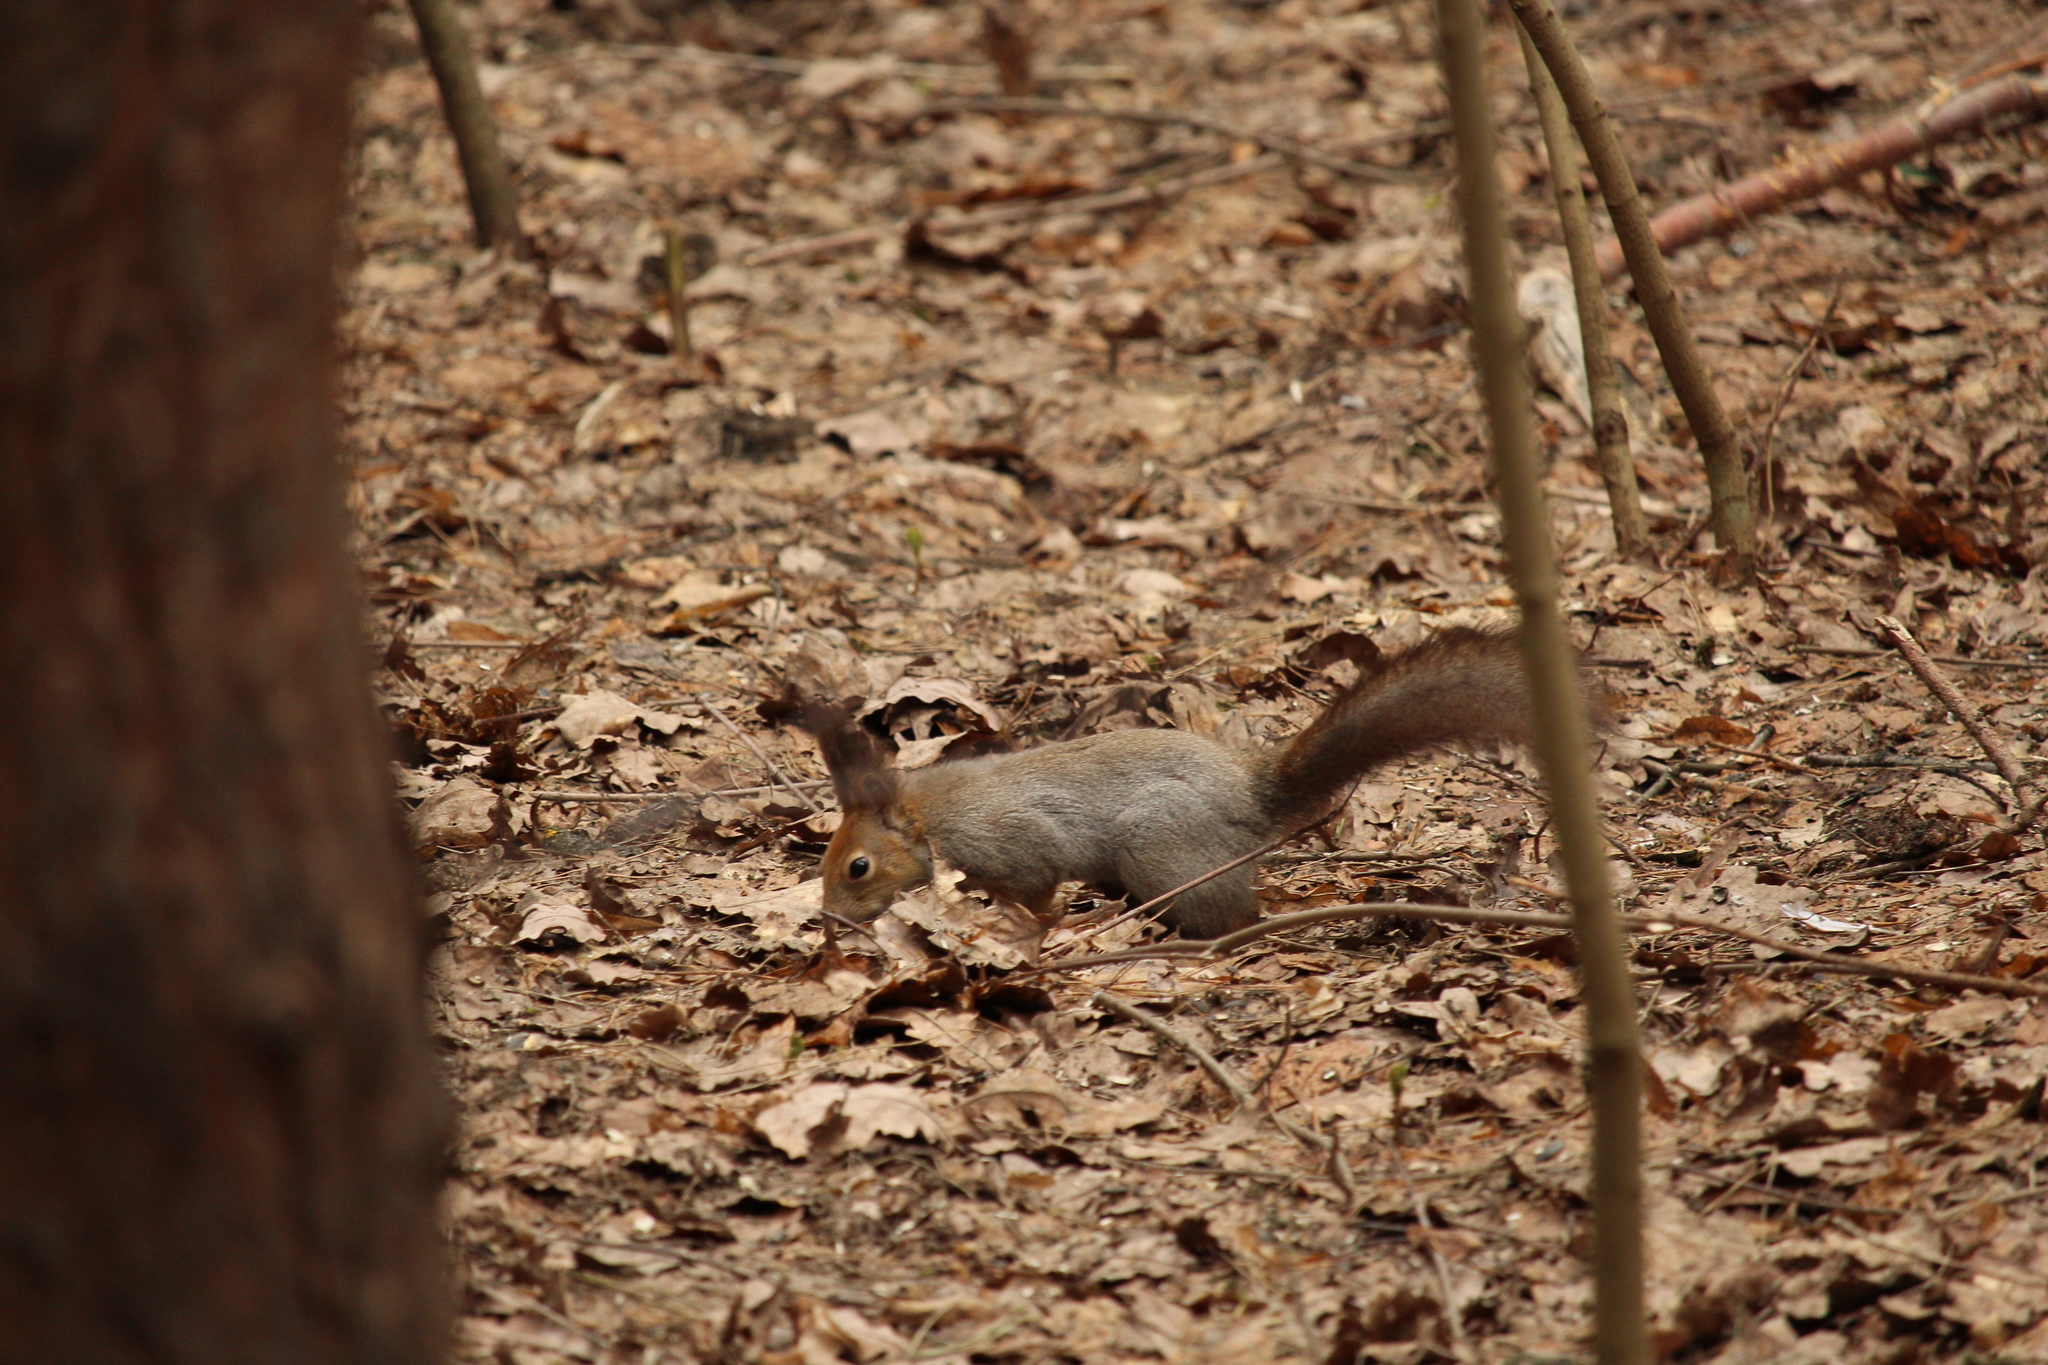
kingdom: Animalia
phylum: Chordata
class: Mammalia
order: Rodentia
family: Sciuridae
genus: Sciurus
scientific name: Sciurus vulgaris
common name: Eurasian red squirrel
